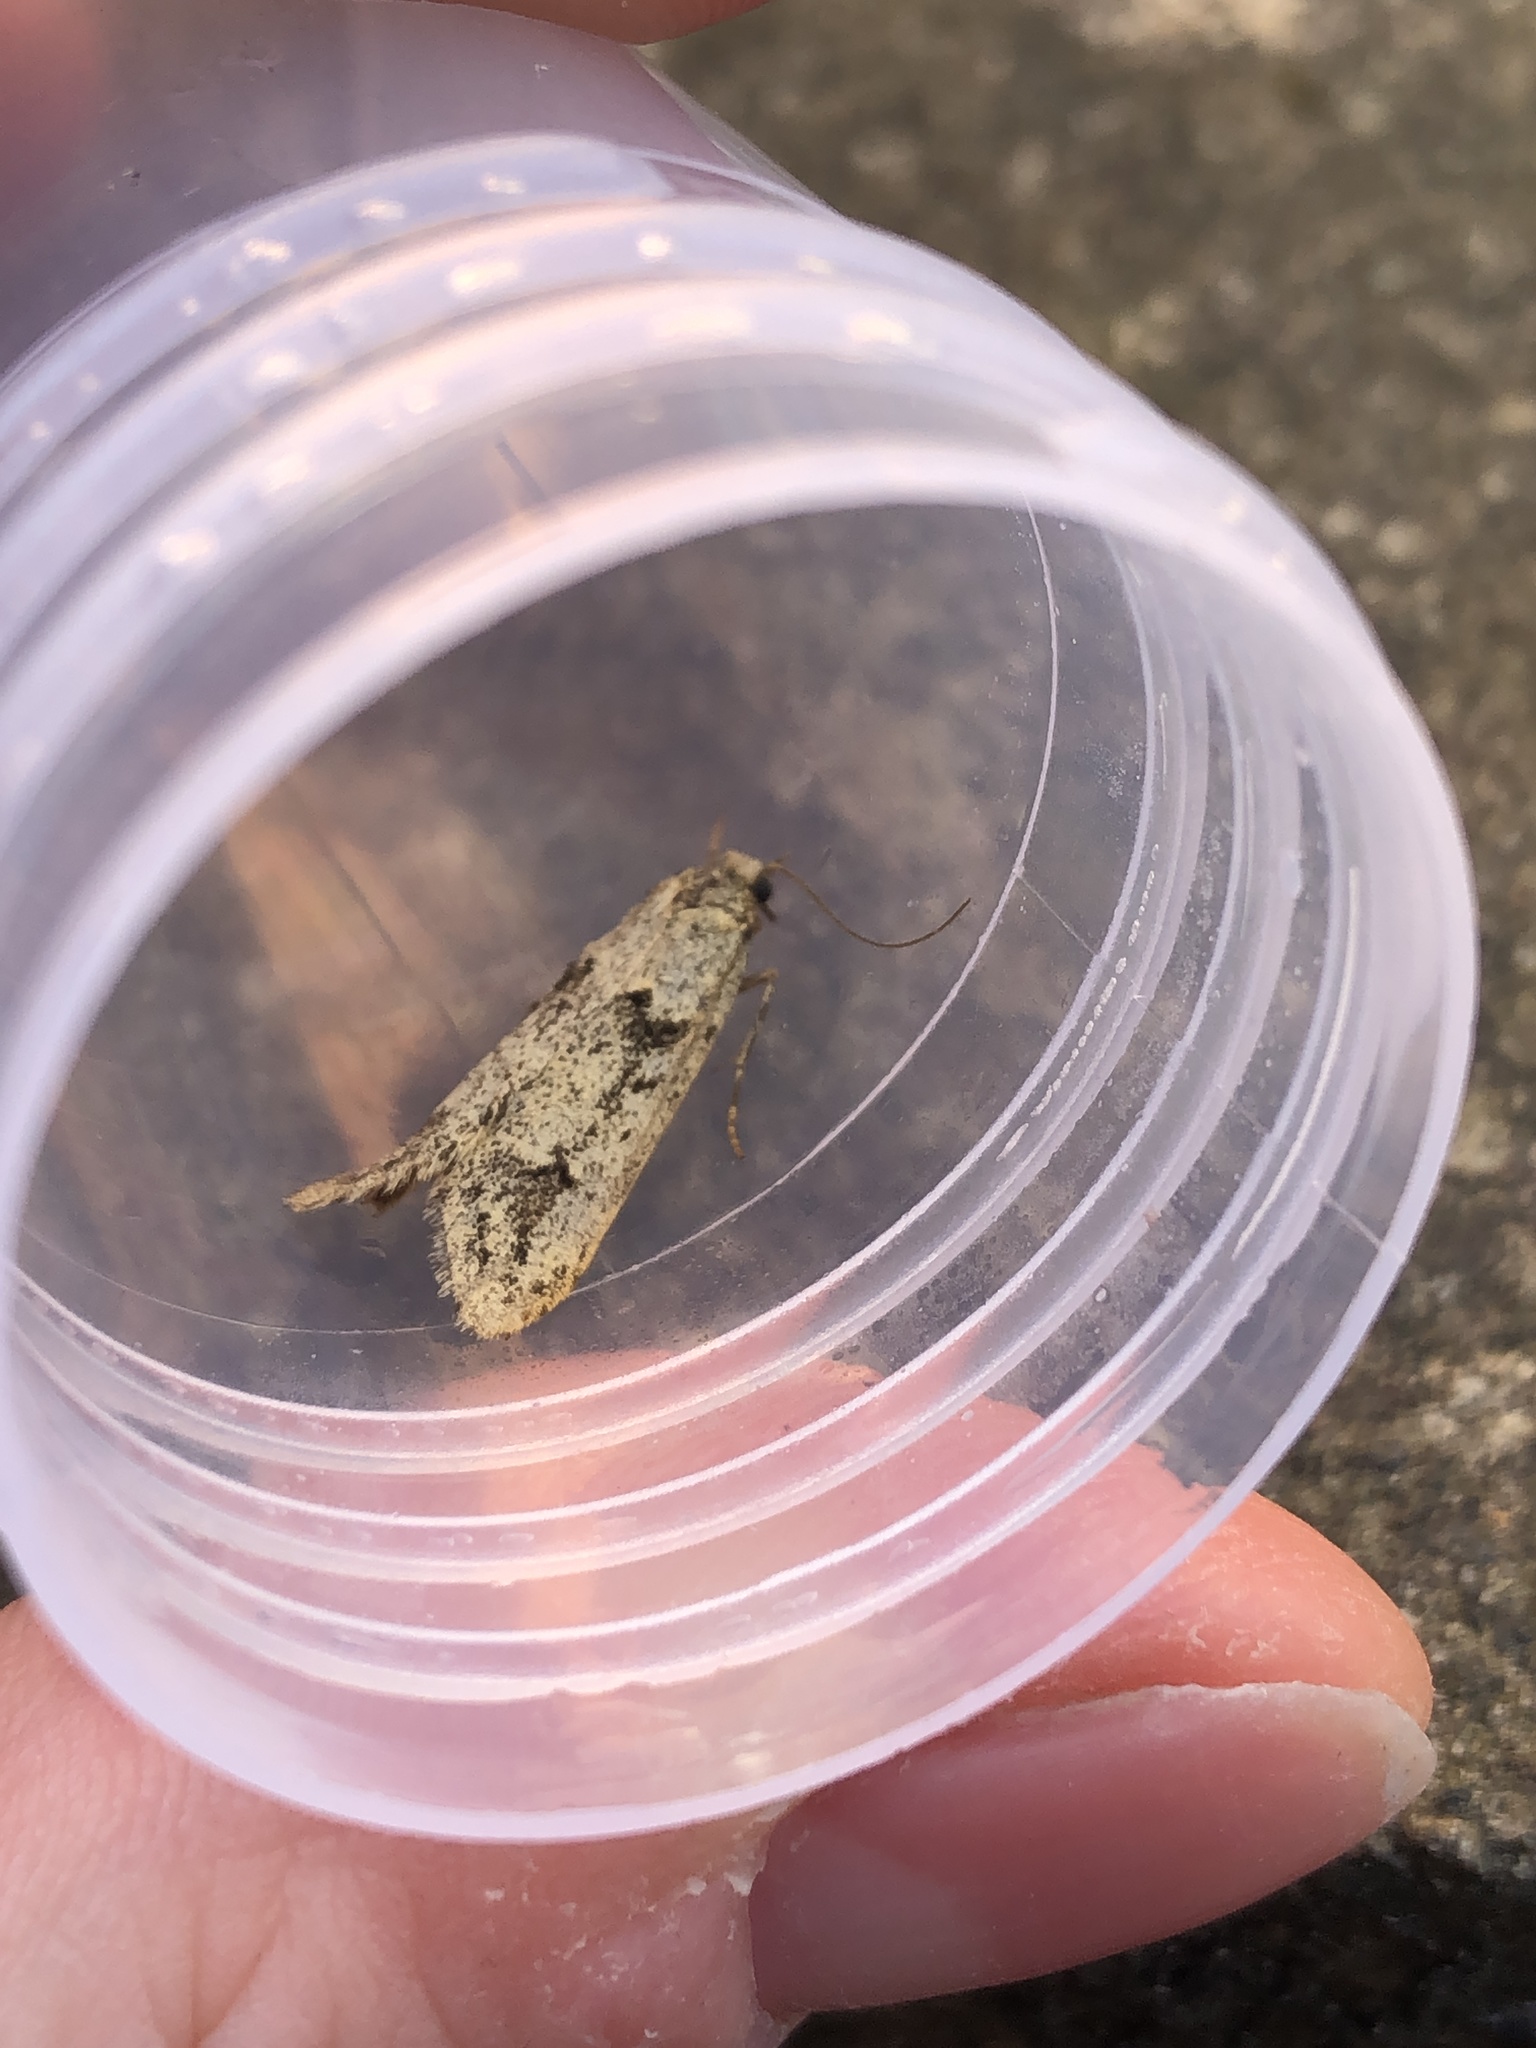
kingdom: Animalia
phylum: Arthropoda
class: Insecta
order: Lepidoptera
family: Lypusidae
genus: Diurnea
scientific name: Diurnea fagella
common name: March tubic
